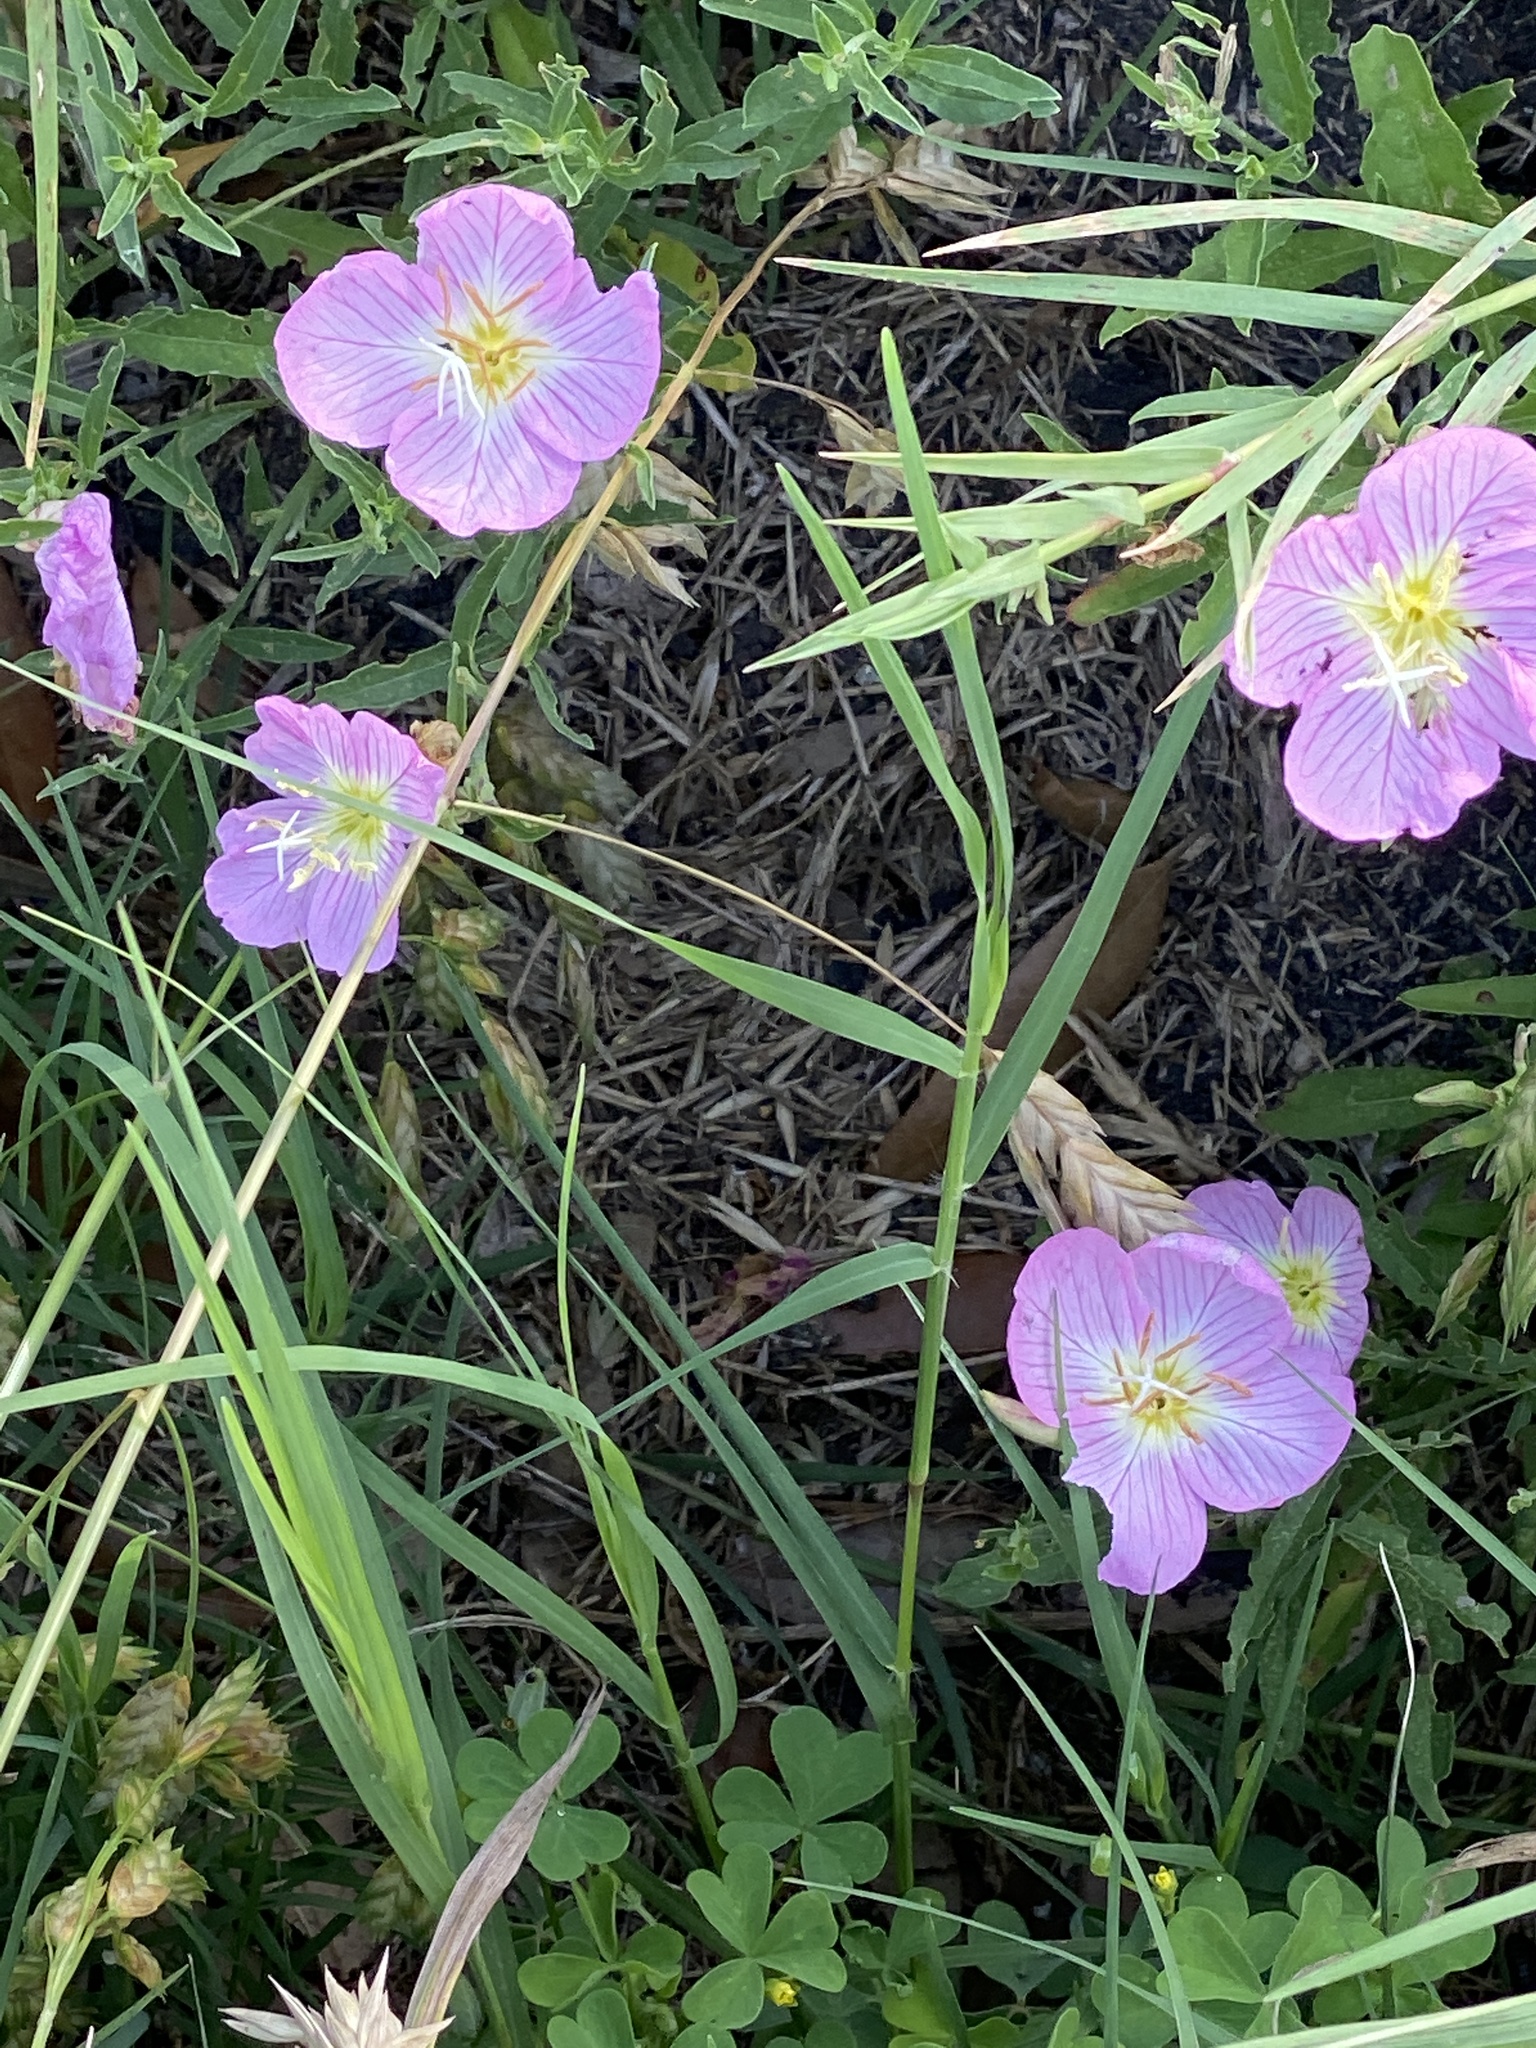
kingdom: Plantae
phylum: Tracheophyta
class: Magnoliopsida
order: Myrtales
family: Onagraceae
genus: Oenothera
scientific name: Oenothera speciosa
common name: White evening-primrose
